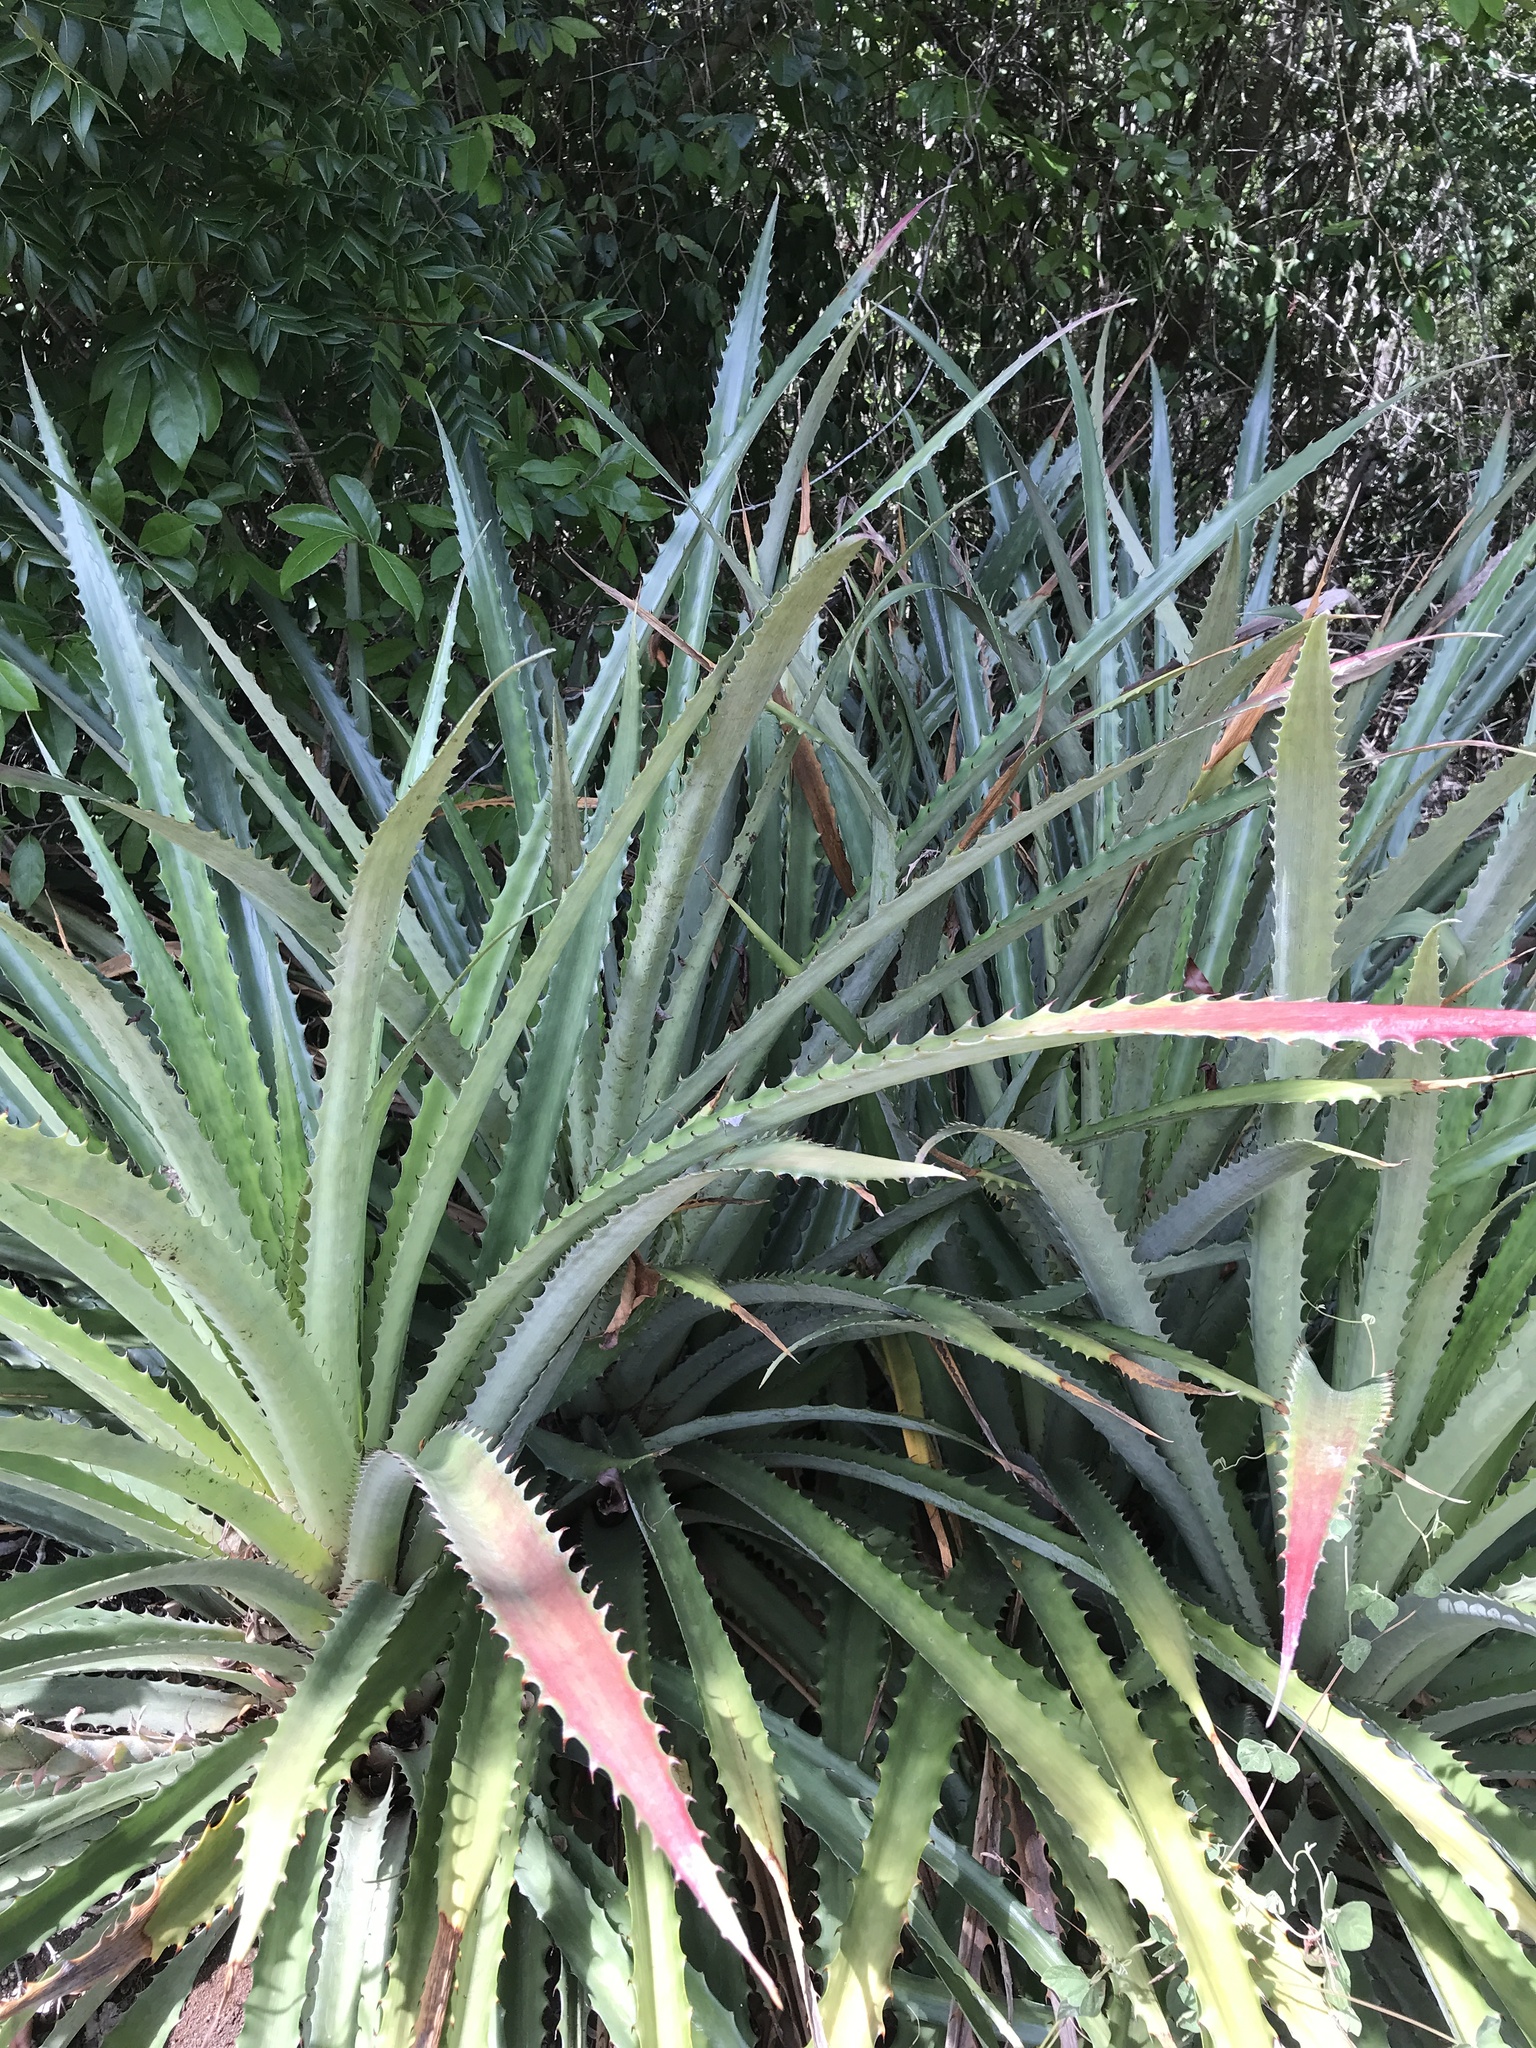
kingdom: Plantae
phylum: Tracheophyta
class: Liliopsida
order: Poales
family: Bromeliaceae
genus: Bromelia
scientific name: Bromelia pinguin
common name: Pinguin
